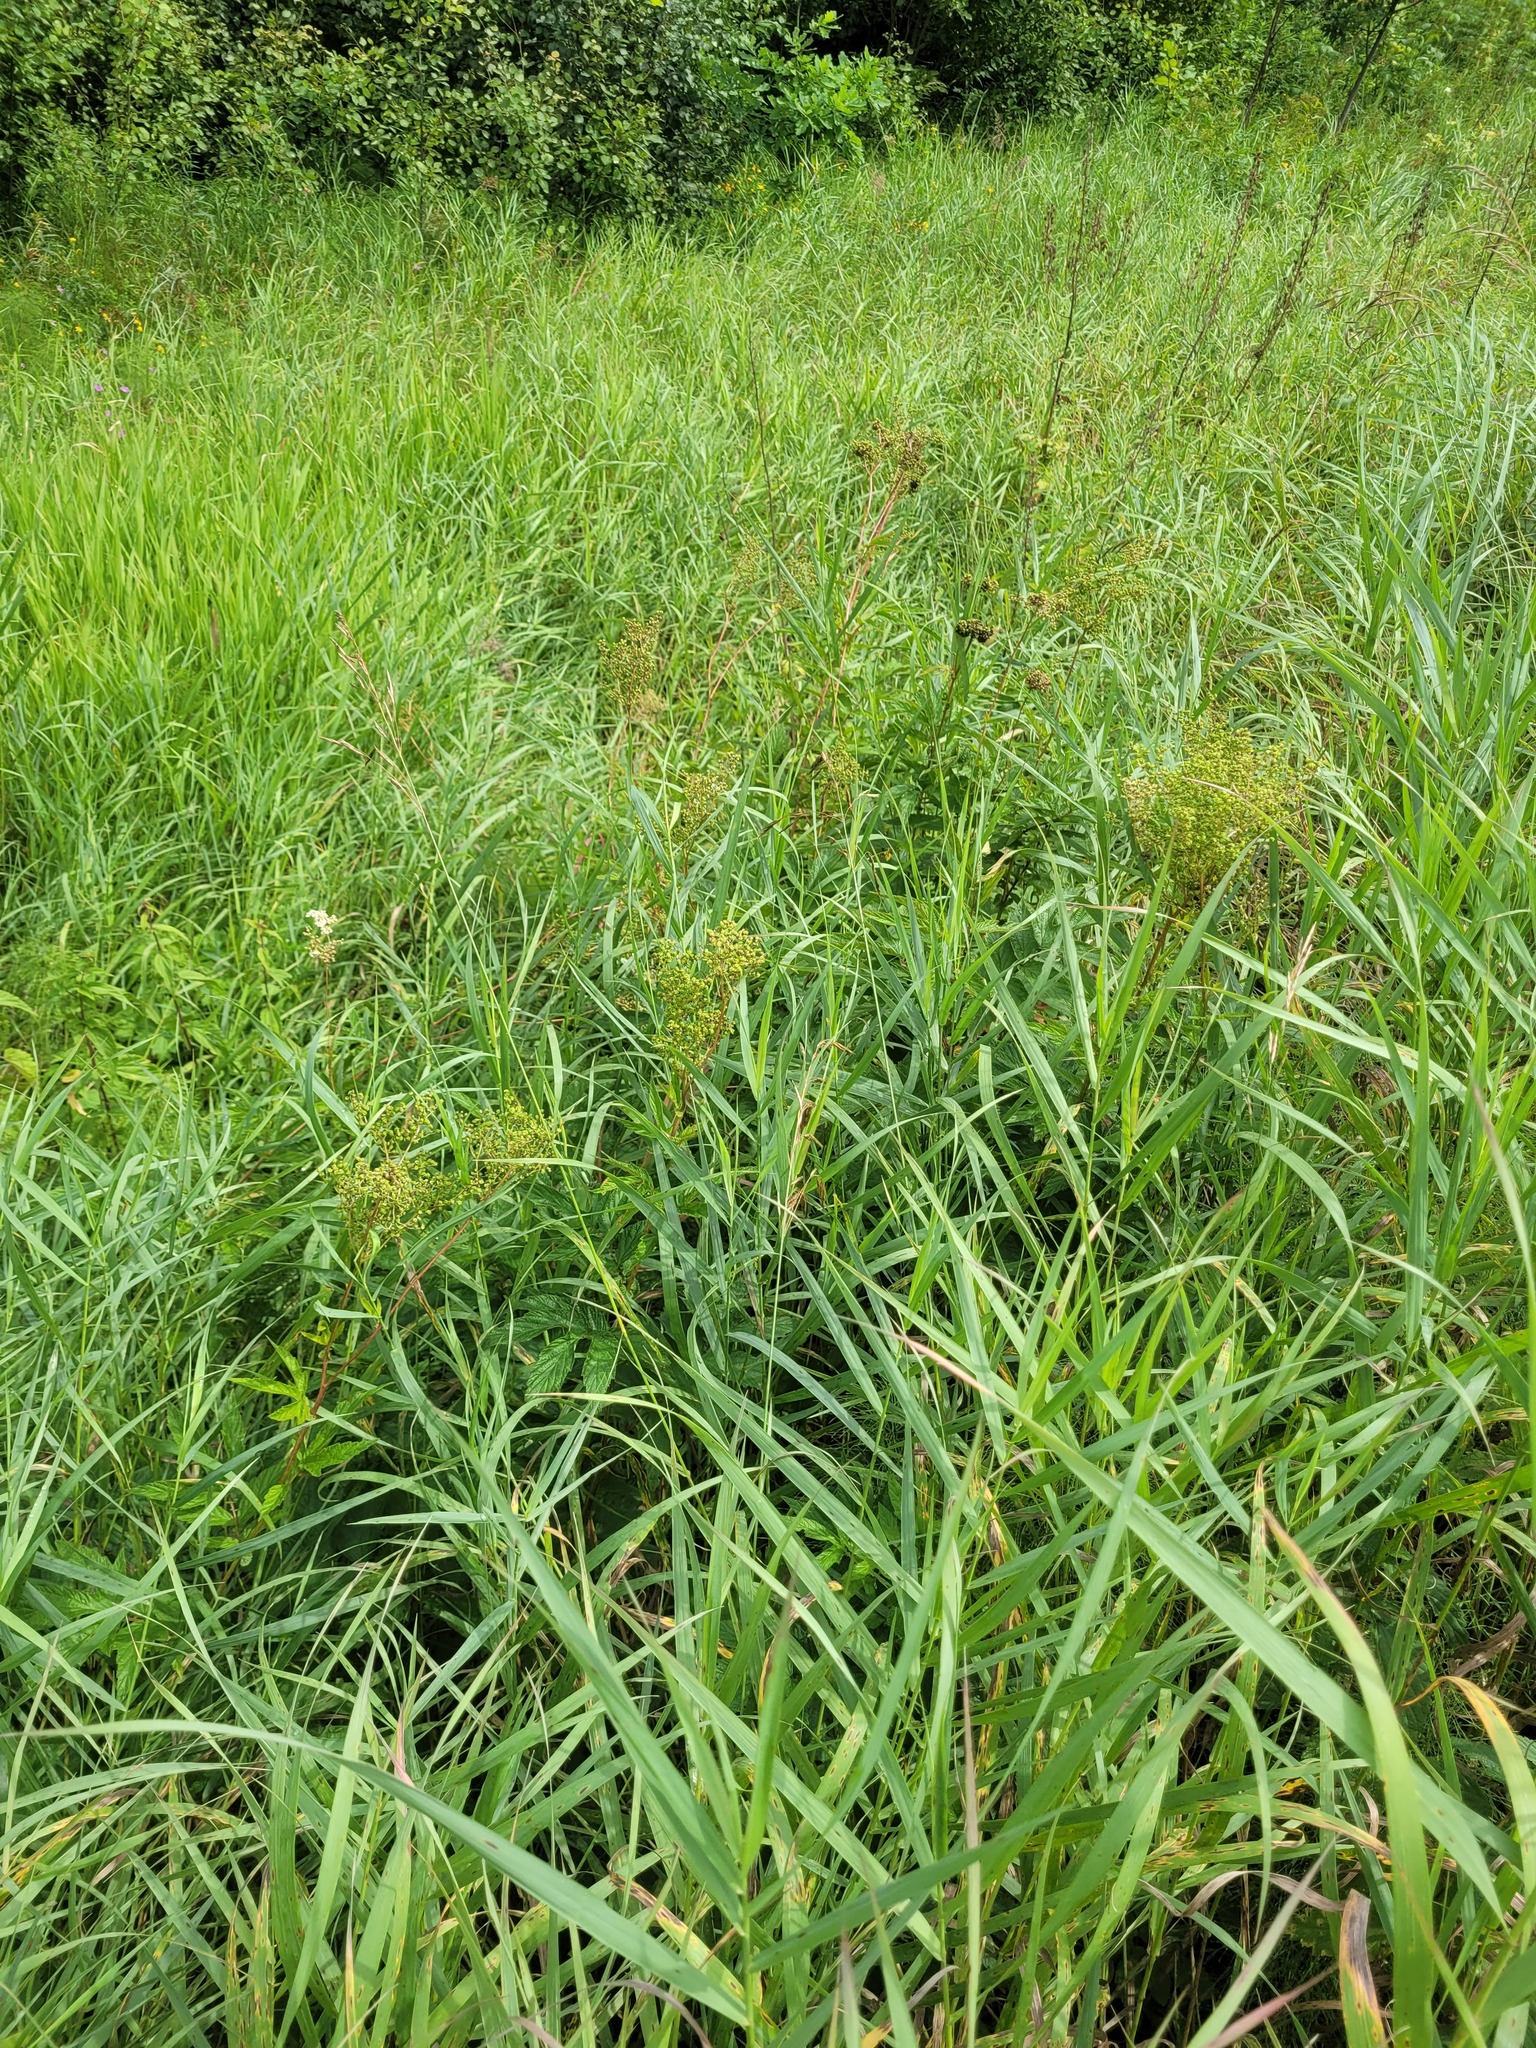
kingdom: Plantae
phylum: Tracheophyta
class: Magnoliopsida
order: Rosales
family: Rosaceae
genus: Filipendula
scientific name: Filipendula ulmaria
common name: Meadowsweet
